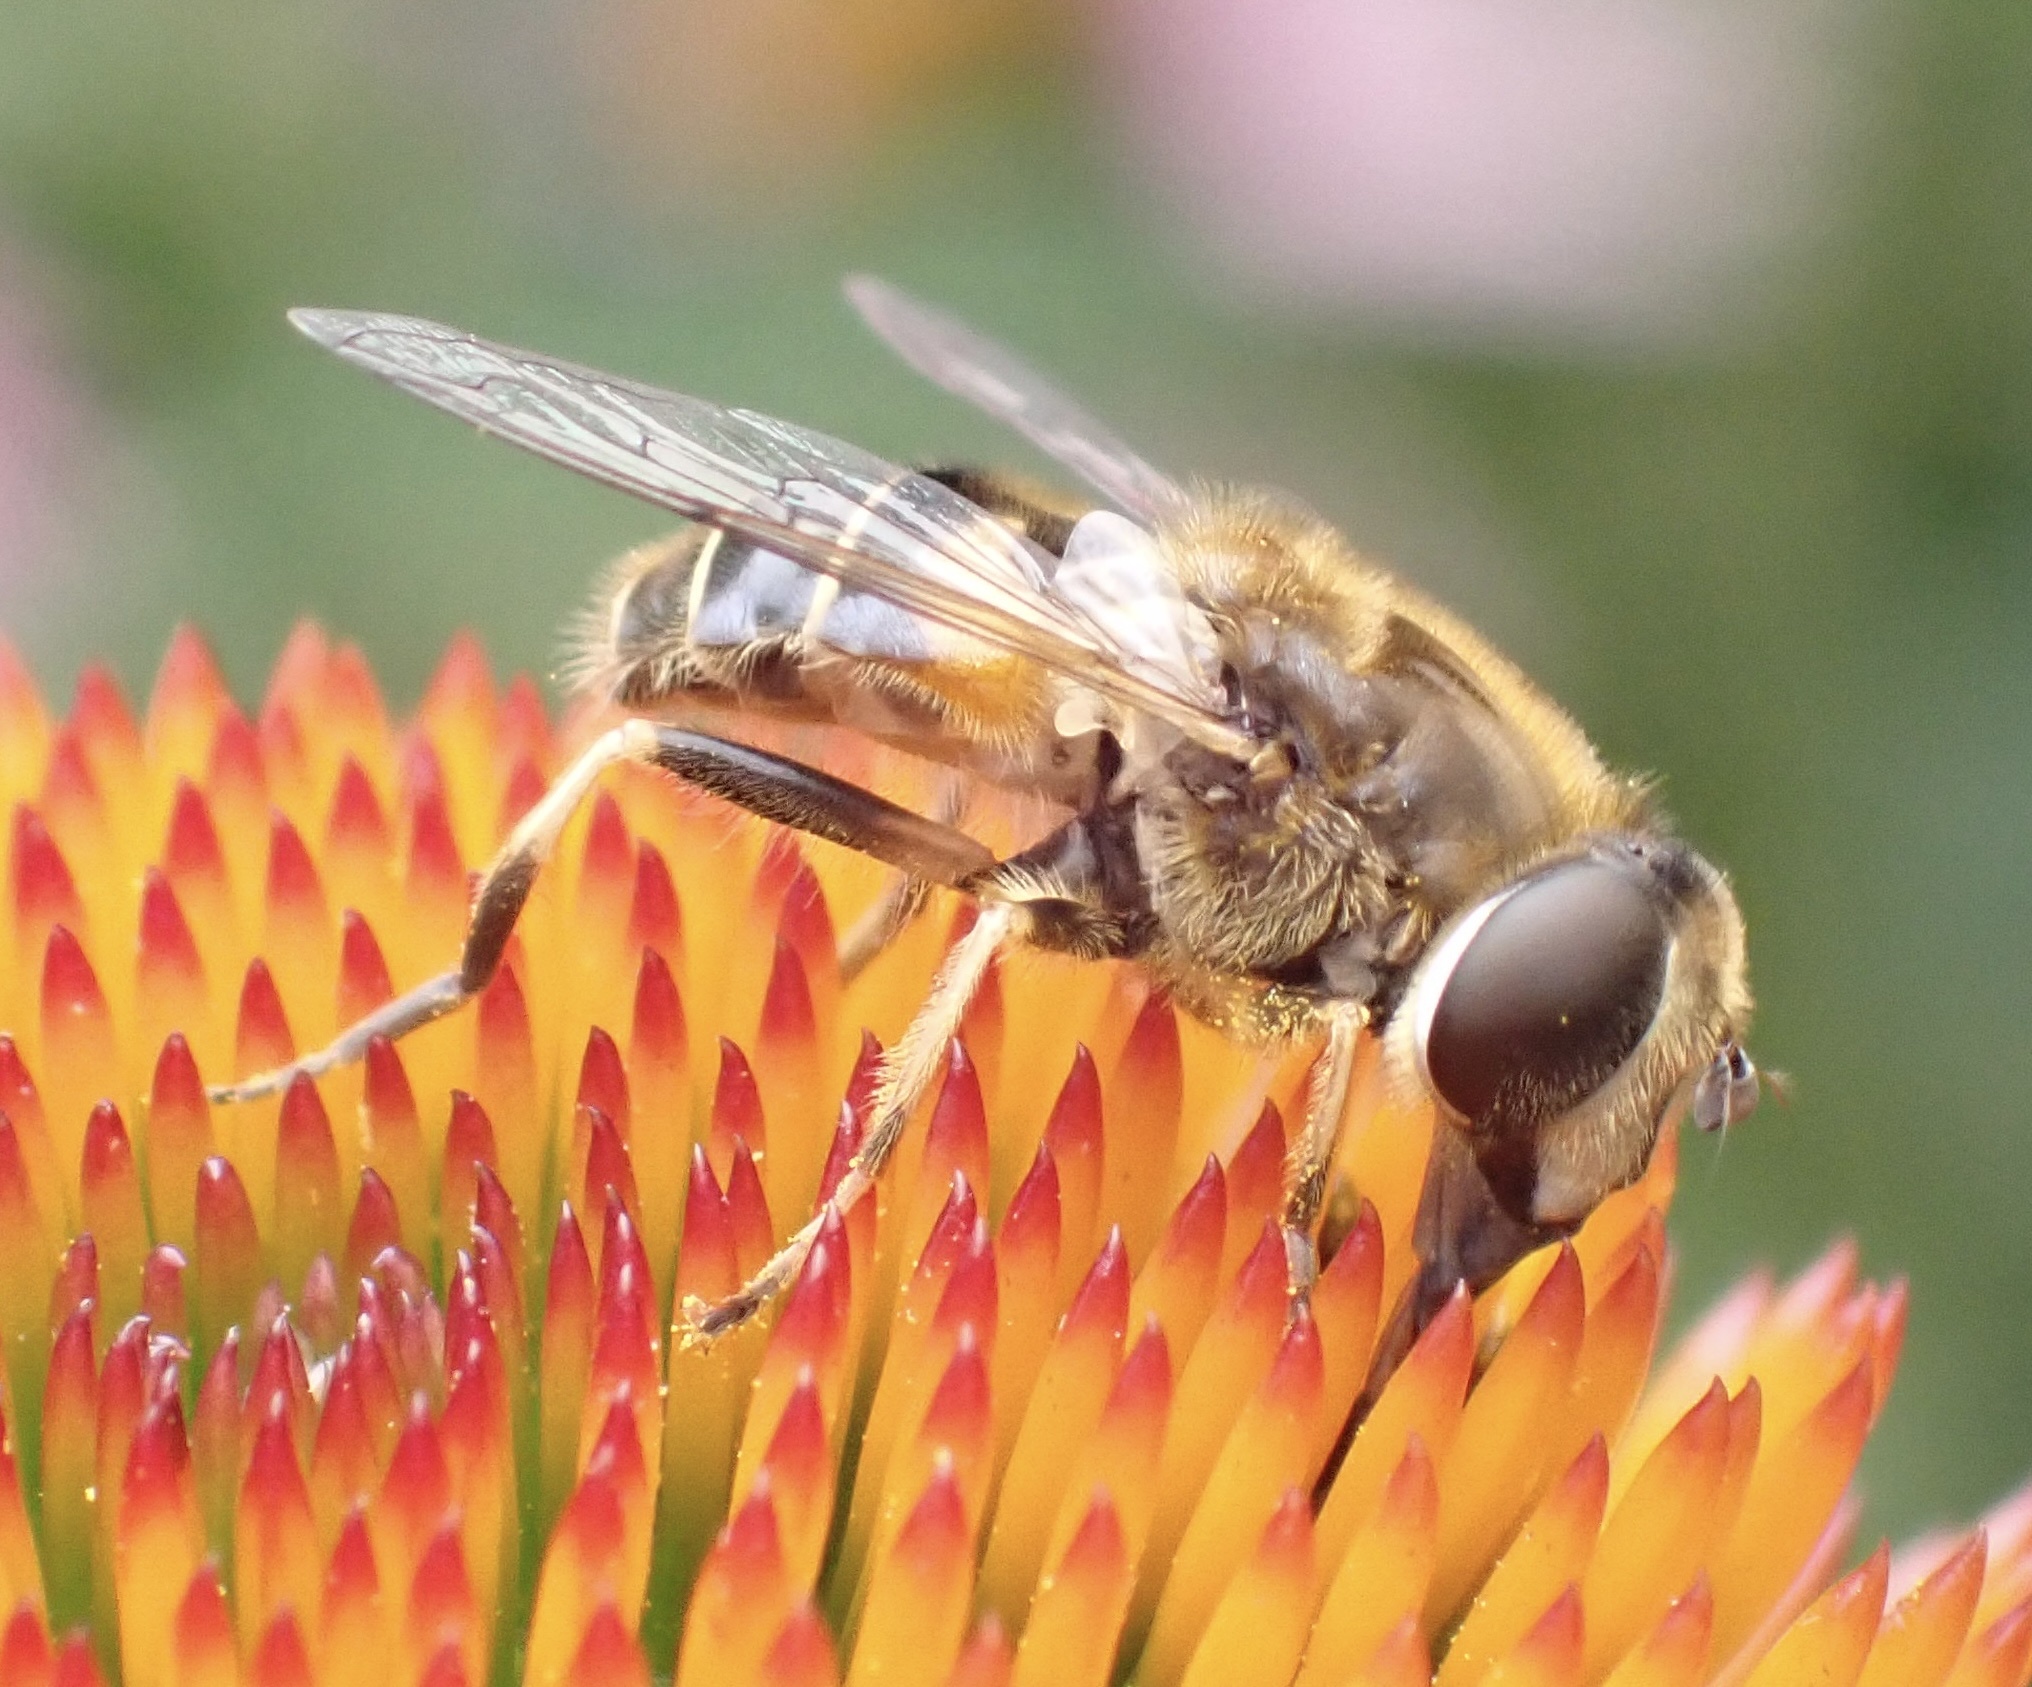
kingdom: Animalia
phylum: Arthropoda
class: Insecta
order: Diptera
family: Syrphidae
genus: Eristalis
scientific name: Eristalis nemorum
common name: Orange-spined drone fly
